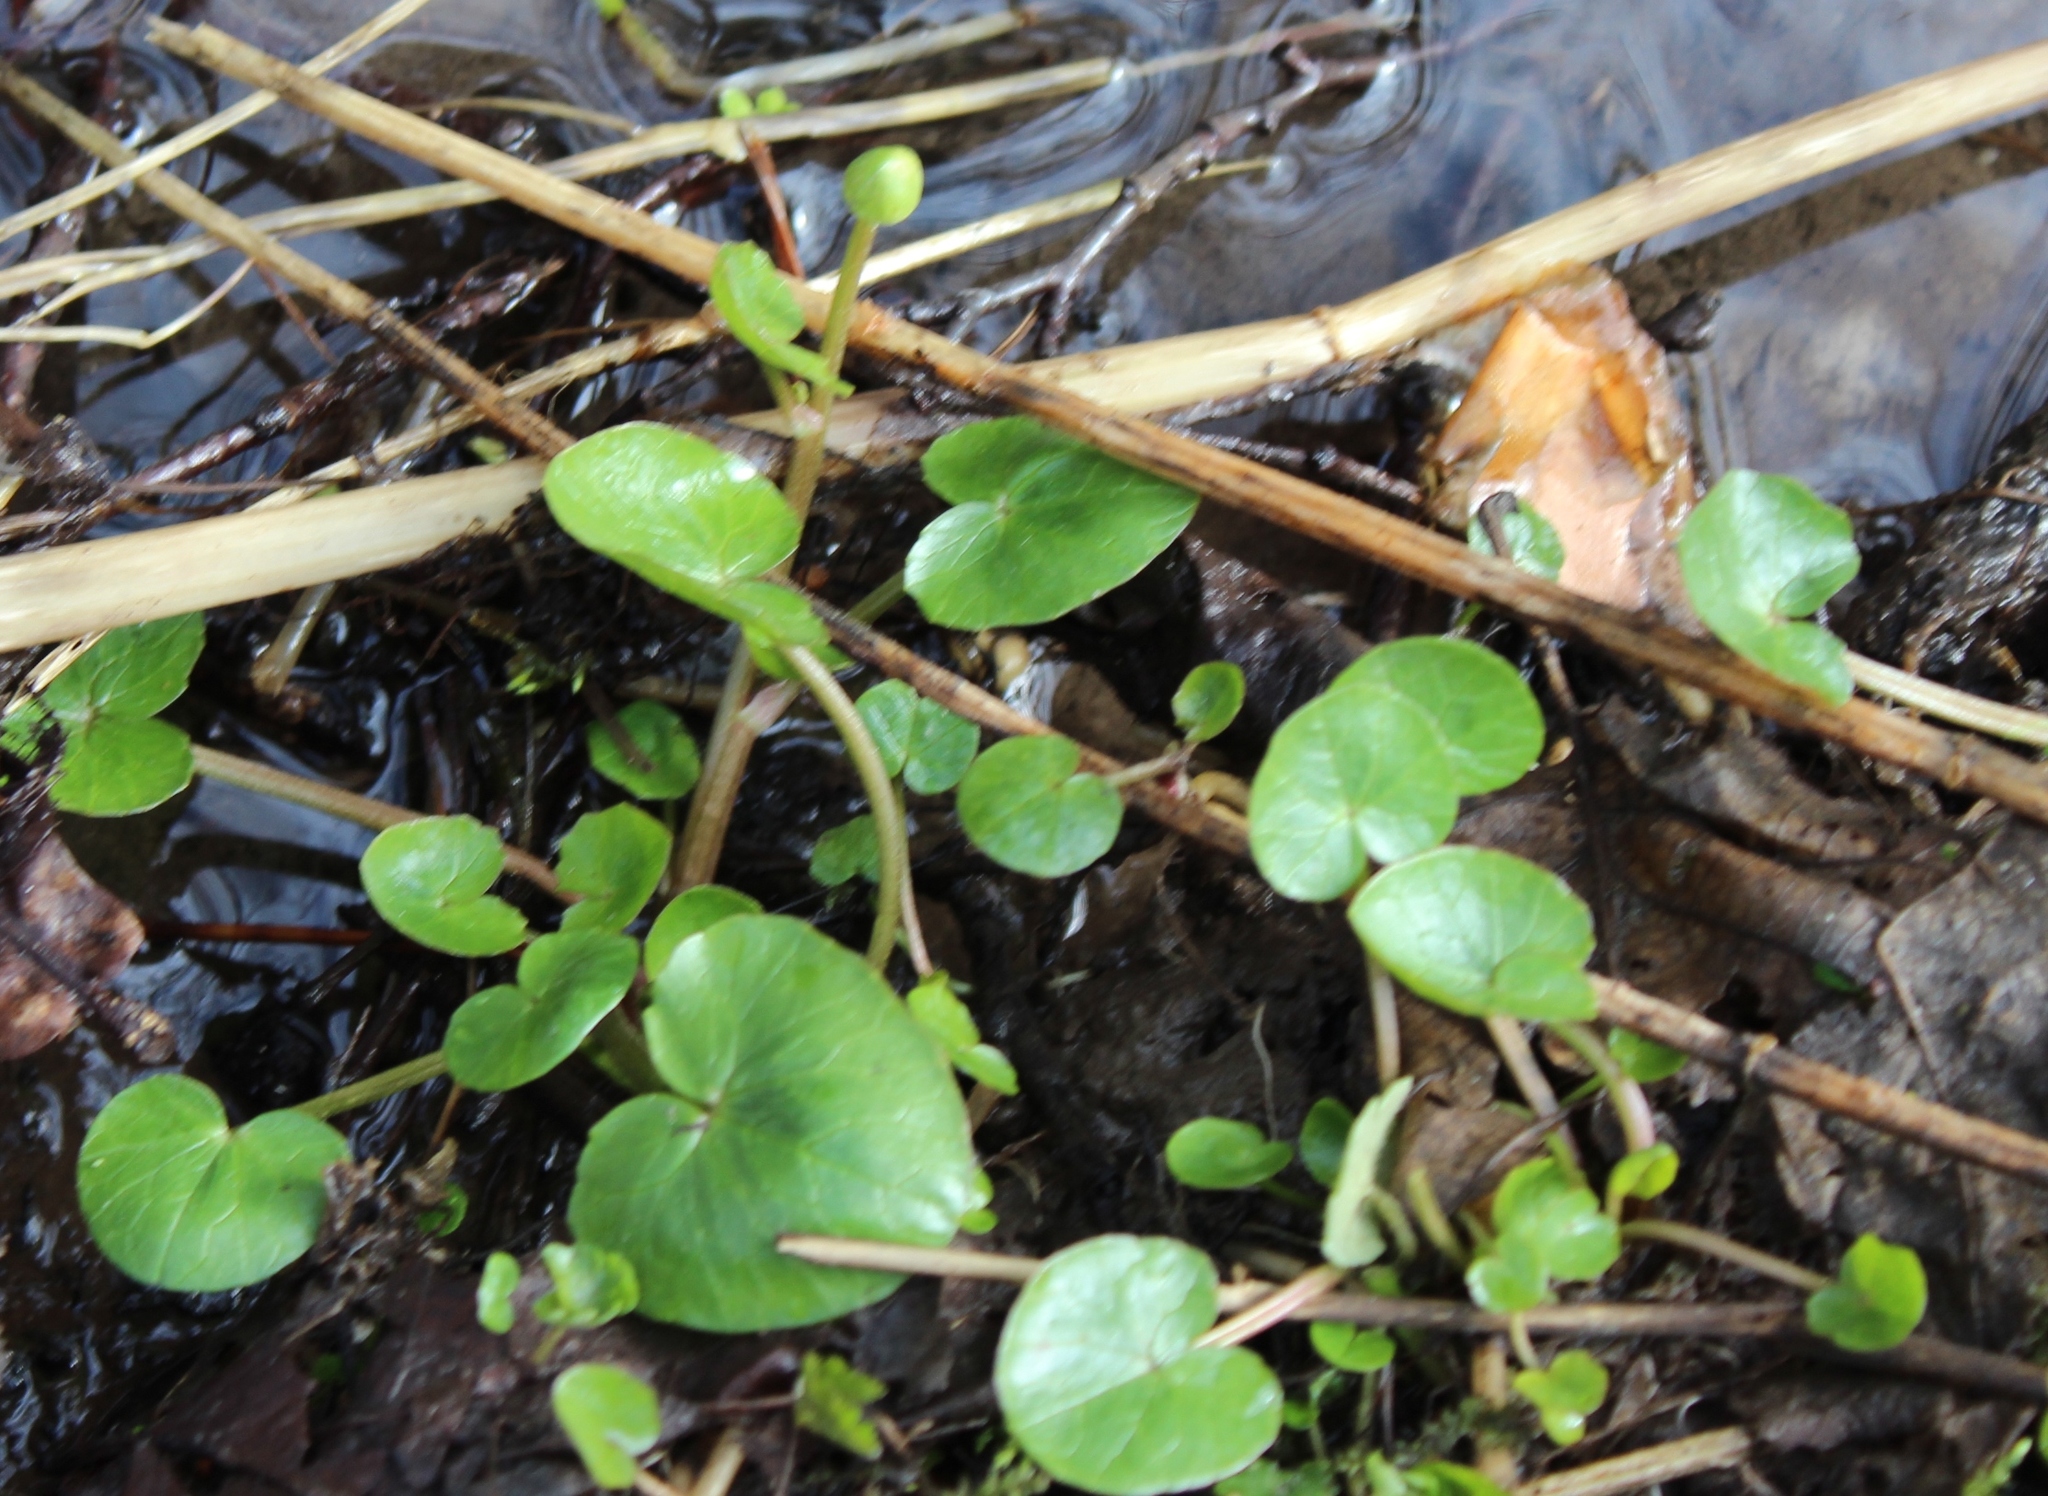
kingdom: Plantae
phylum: Tracheophyta
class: Magnoliopsida
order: Ranunculales
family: Ranunculaceae
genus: Ficaria
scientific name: Ficaria verna
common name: Lesser celandine
